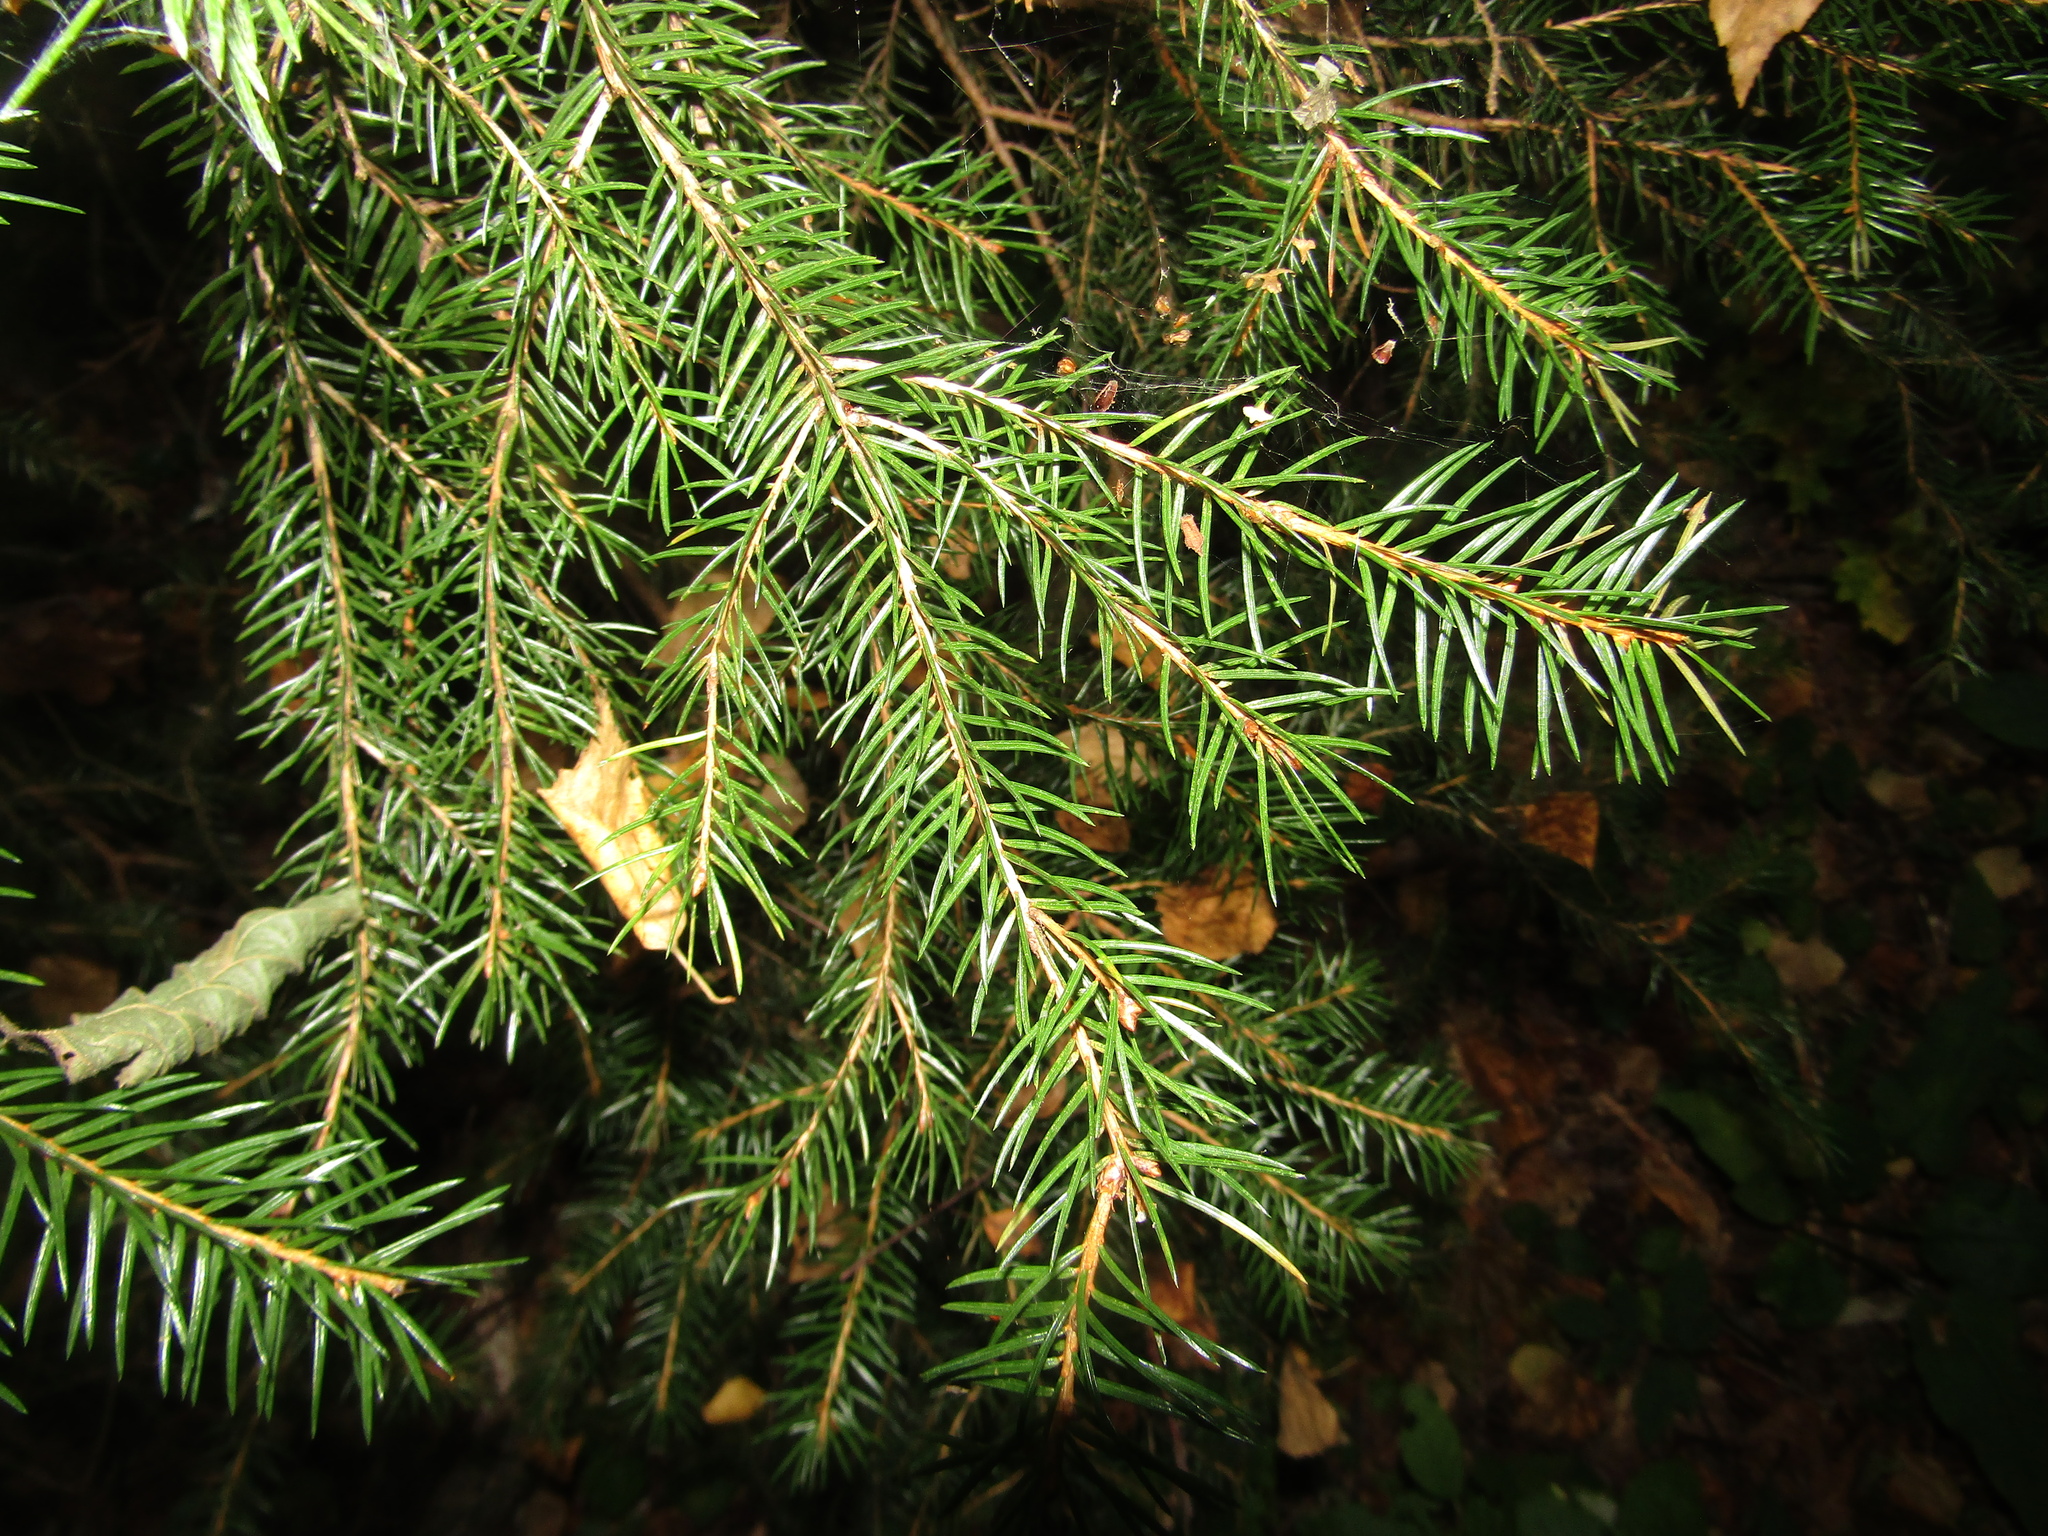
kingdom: Plantae
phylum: Tracheophyta
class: Pinopsida
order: Pinales
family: Pinaceae
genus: Picea
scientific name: Picea abies
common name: Norway spruce
